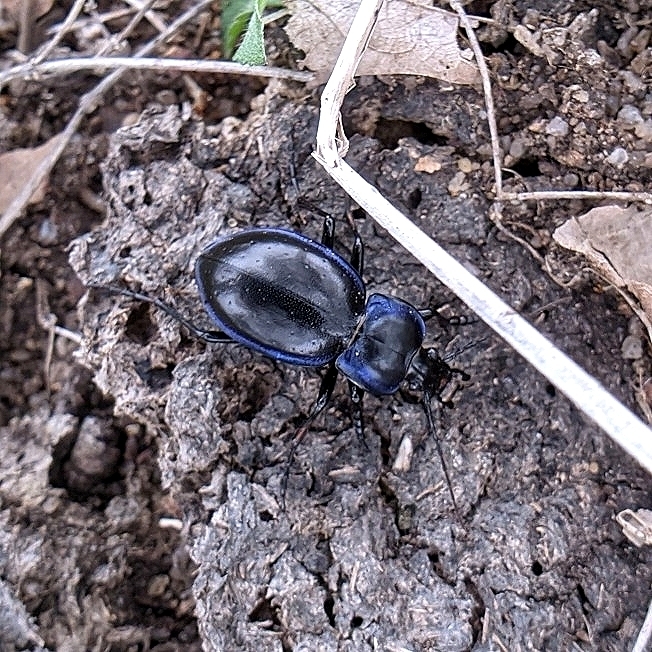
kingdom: Animalia
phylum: Arthropoda
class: Insecta
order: Coleoptera
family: Carabidae
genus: Carabus
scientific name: Carabus finitimus
